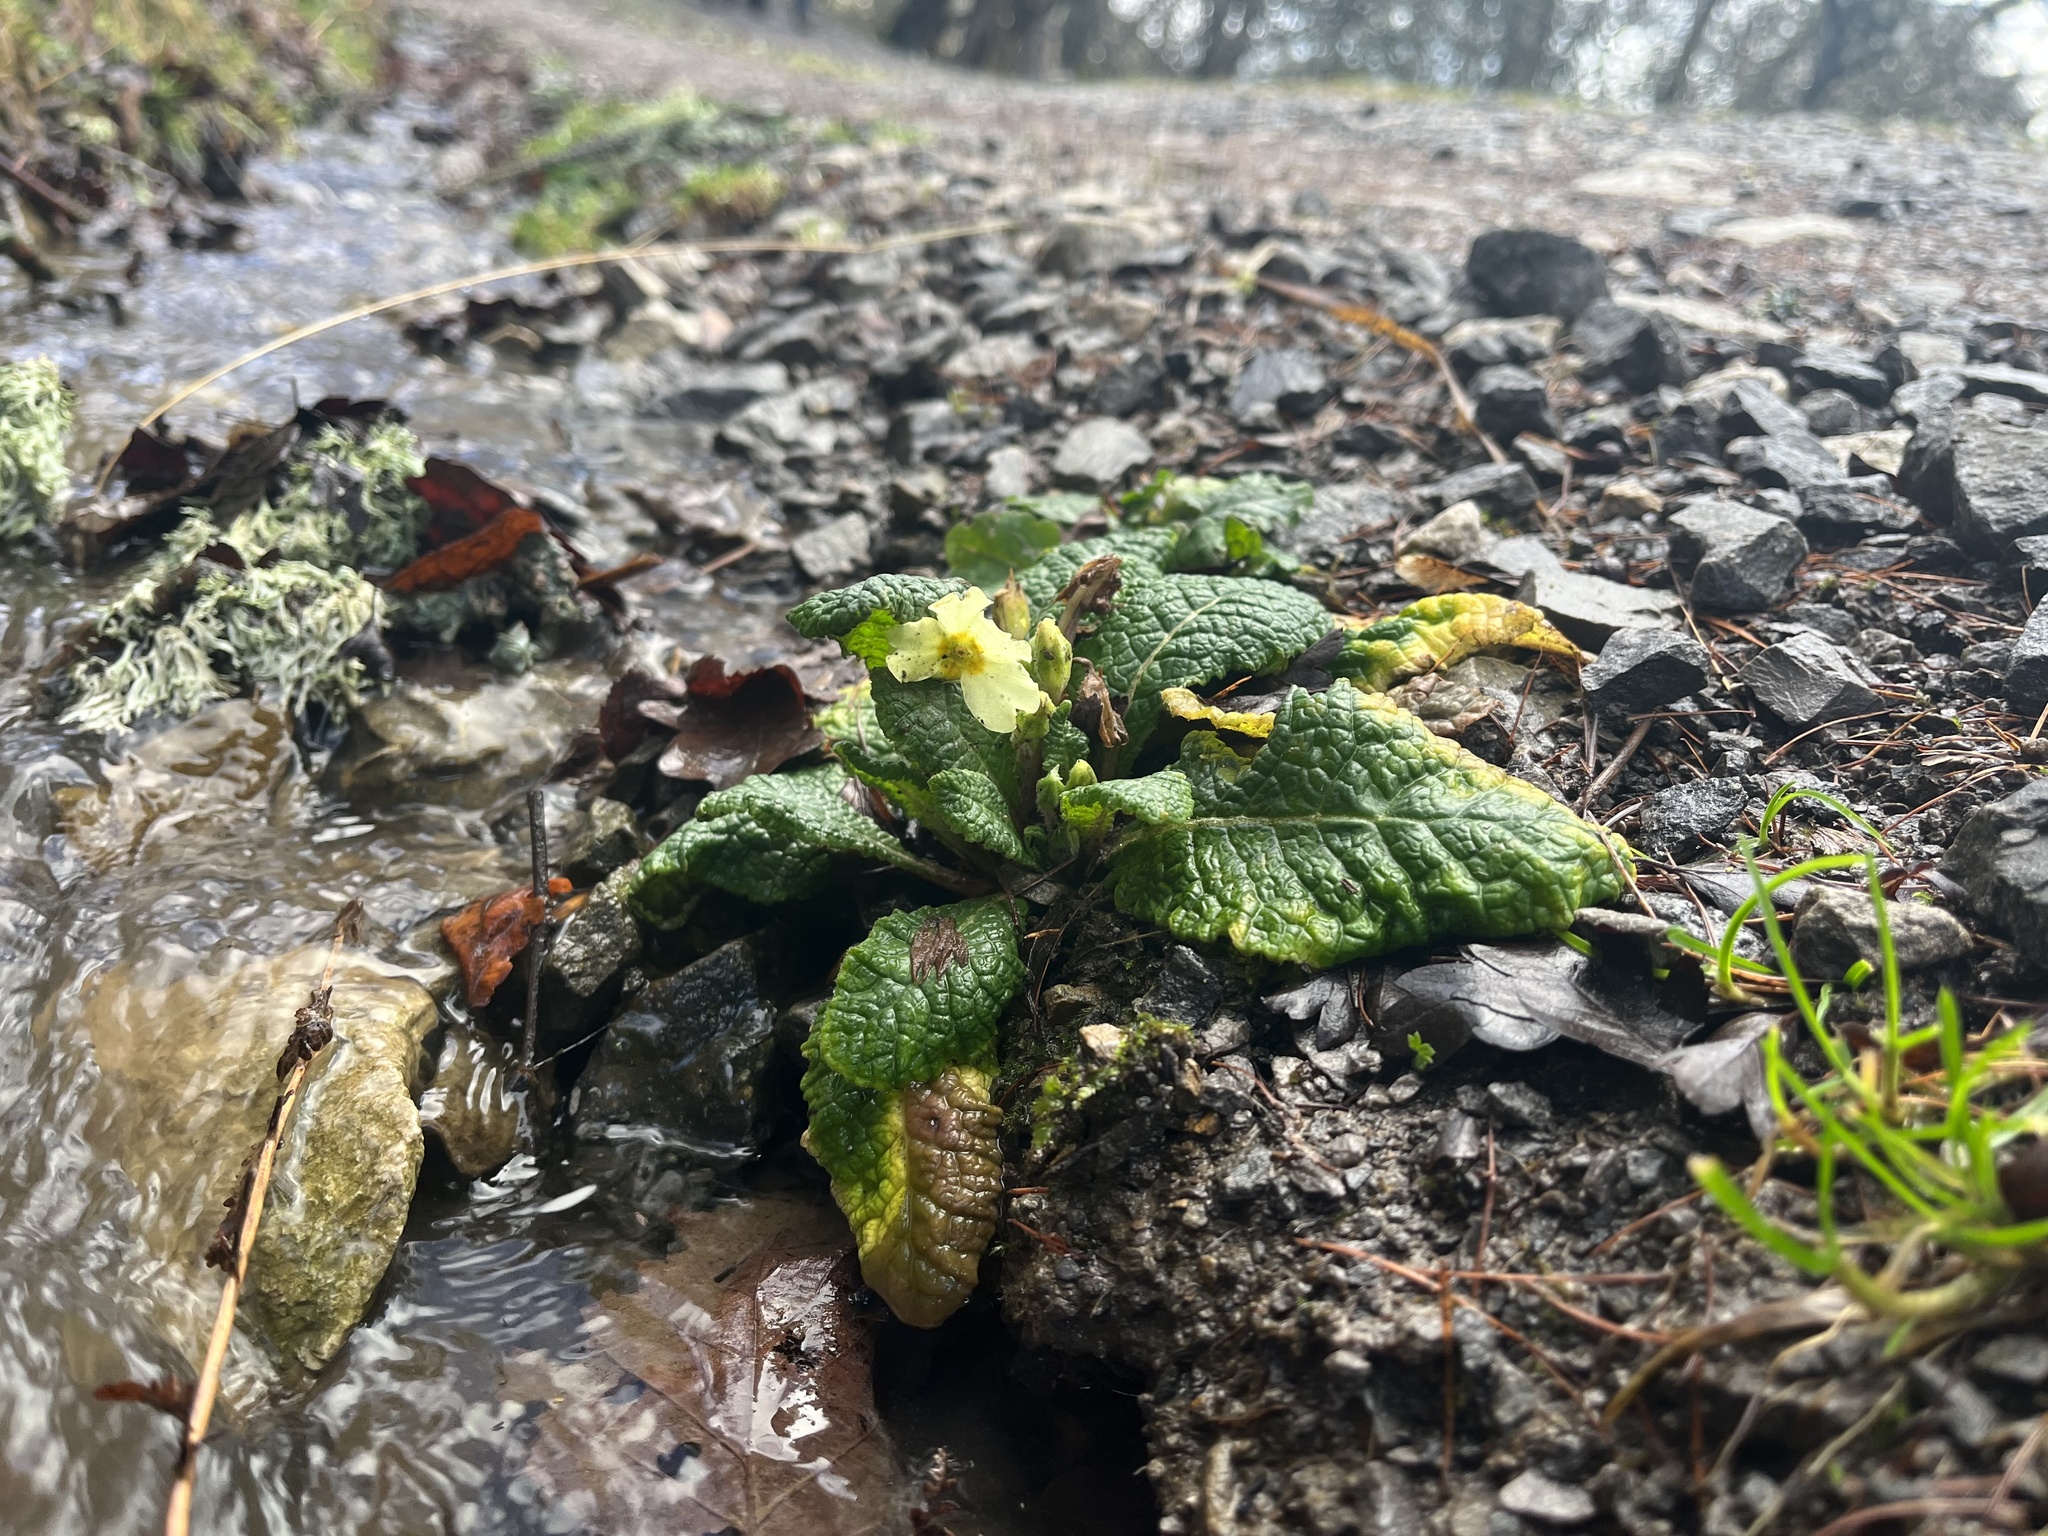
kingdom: Plantae
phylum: Tracheophyta
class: Magnoliopsida
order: Ericales
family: Primulaceae
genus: Primula
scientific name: Primula vulgaris
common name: Primrose
